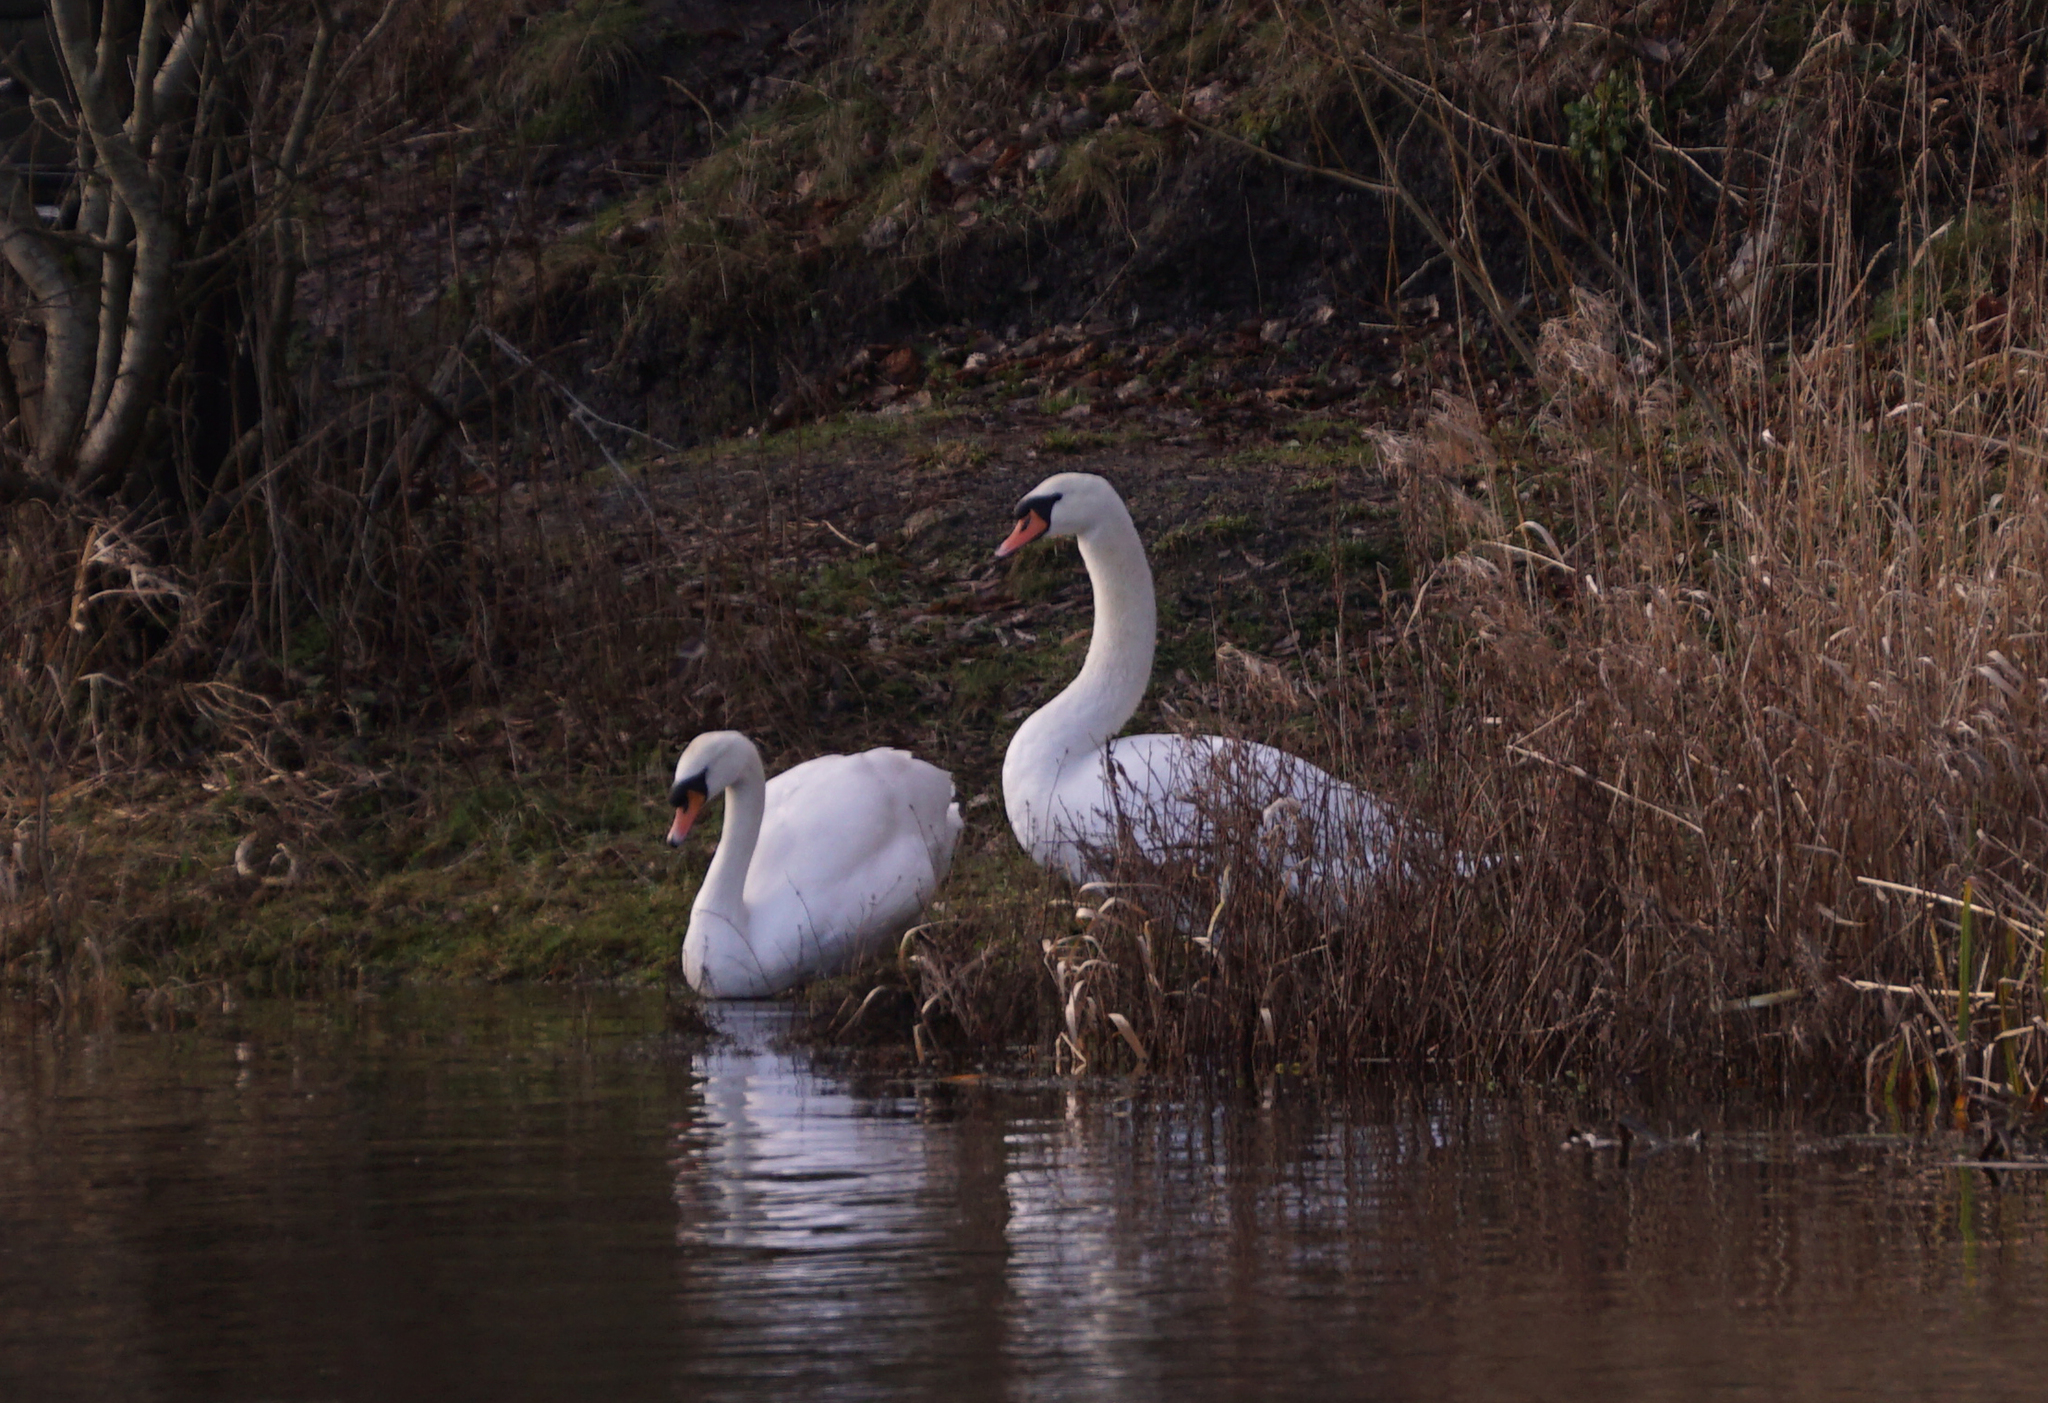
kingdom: Animalia
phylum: Chordata
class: Aves
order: Anseriformes
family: Anatidae
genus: Cygnus
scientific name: Cygnus olor
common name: Mute swan
